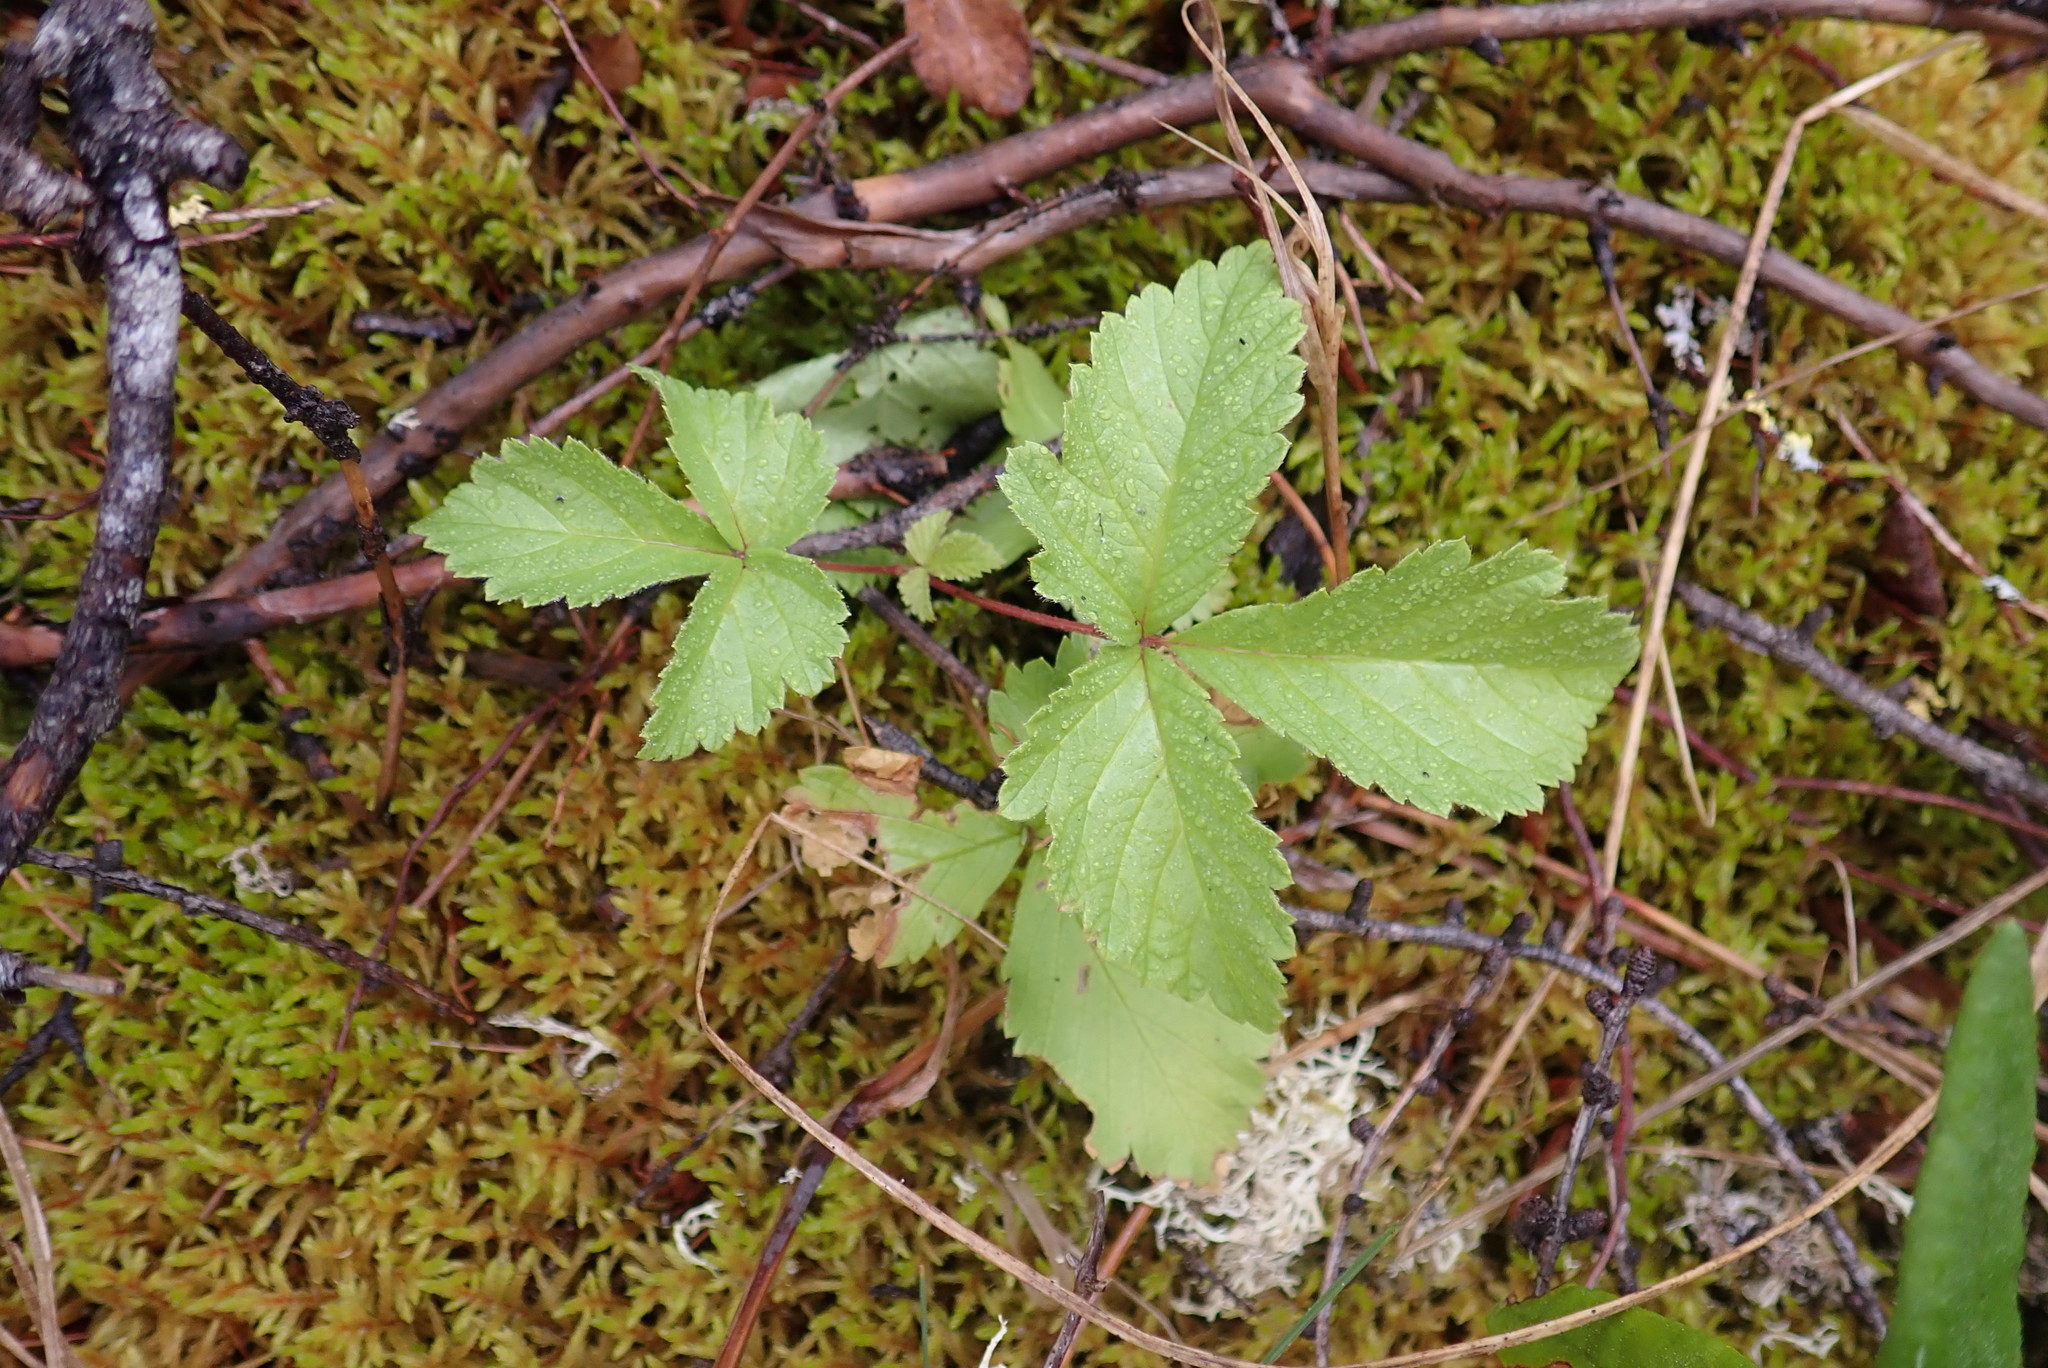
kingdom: Plantae
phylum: Tracheophyta
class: Magnoliopsida
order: Rosales
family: Rosaceae
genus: Rubus
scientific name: Rubus arcticus
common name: Arctic bramble
